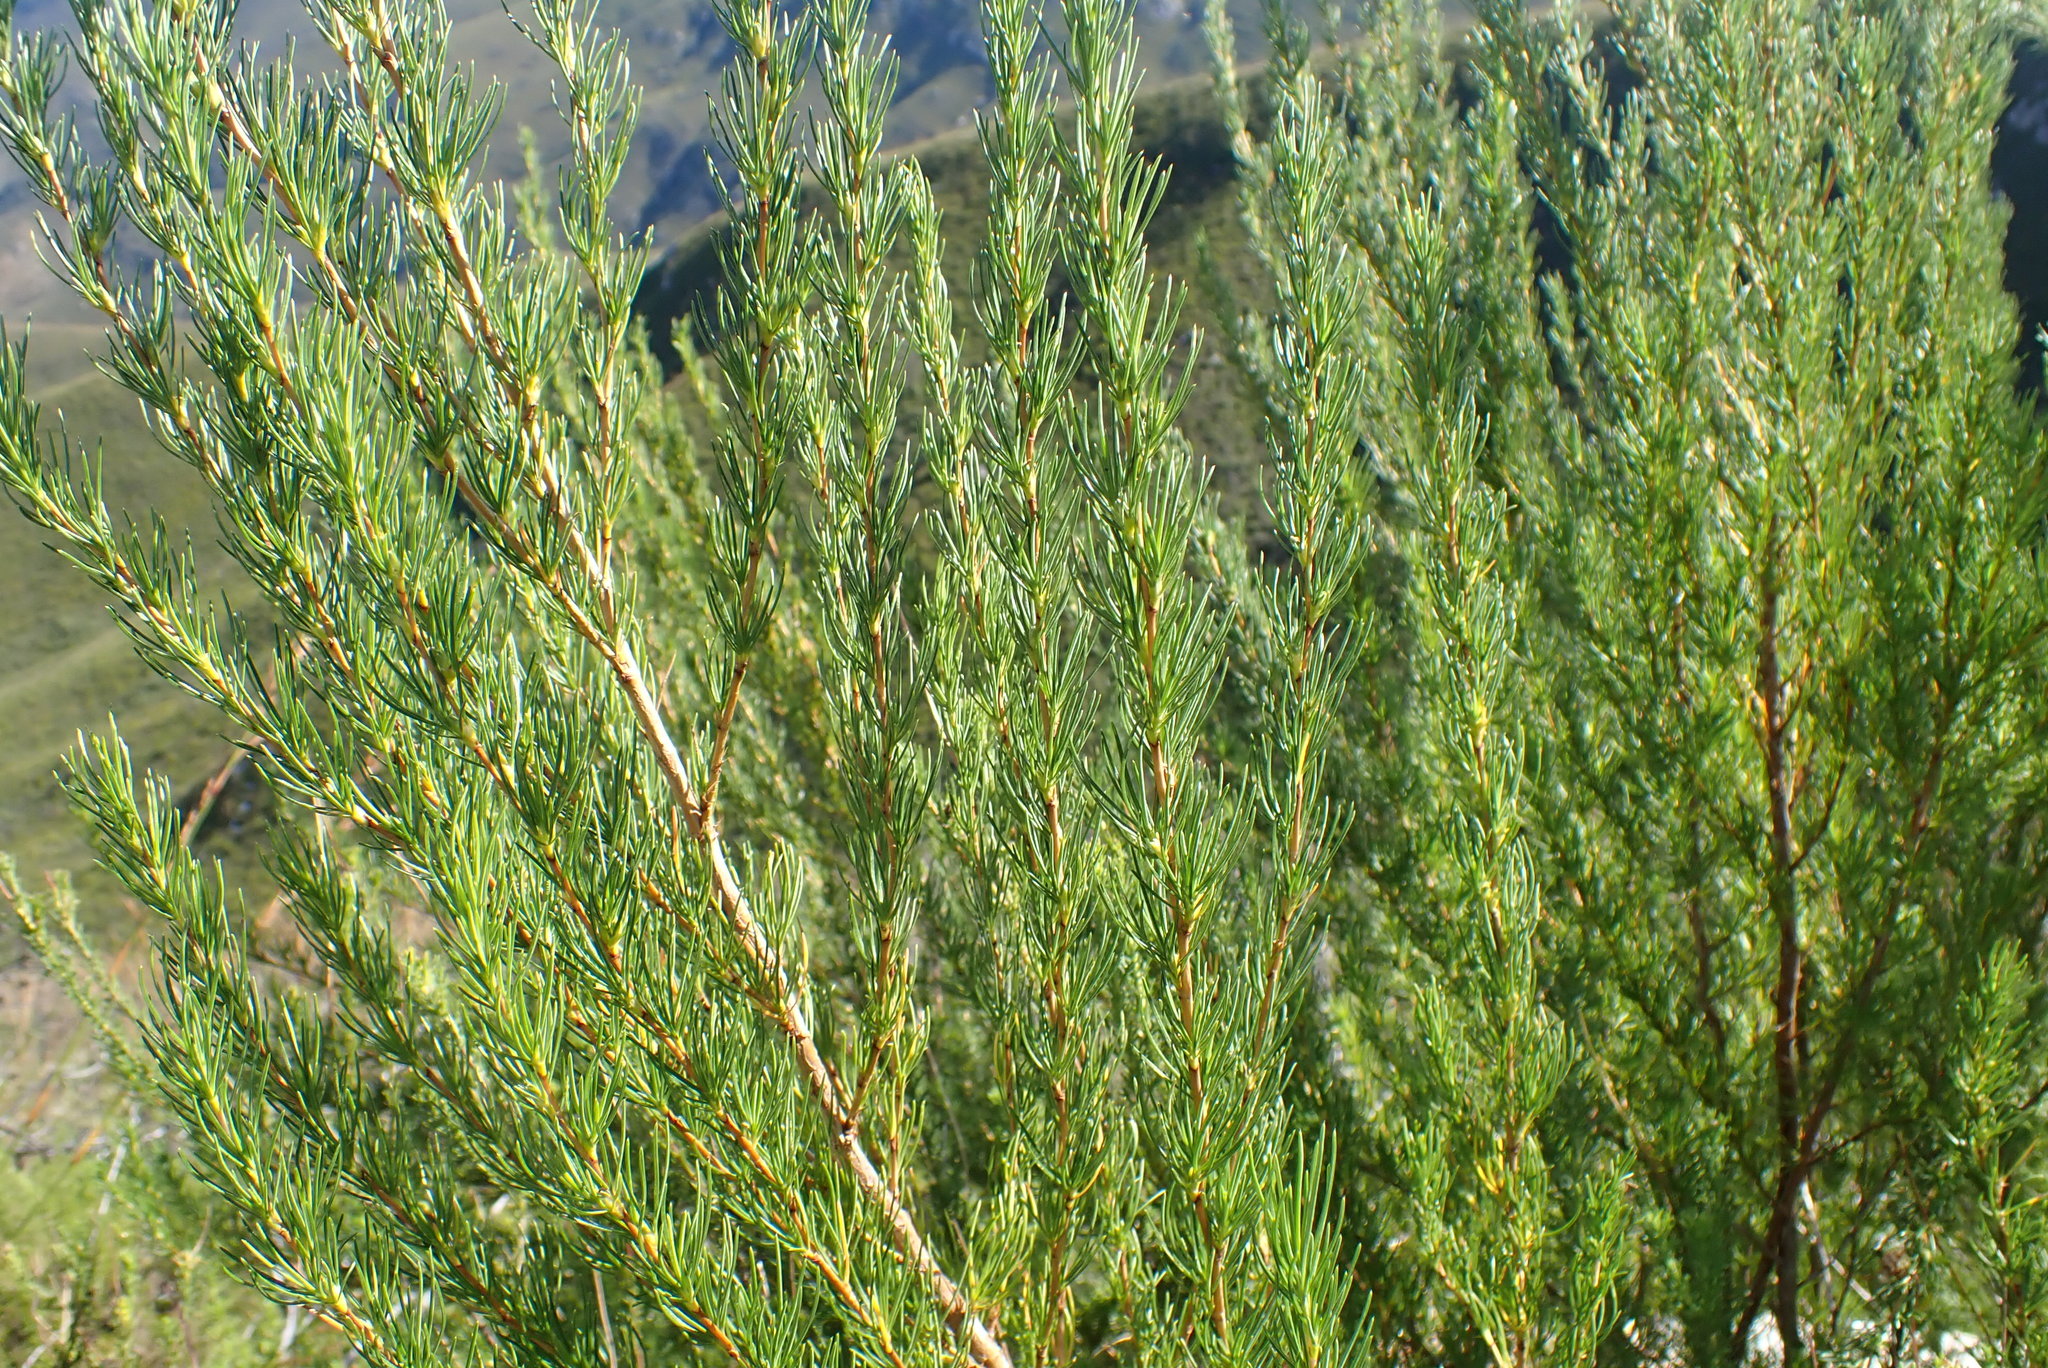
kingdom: Plantae
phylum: Tracheophyta
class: Magnoliopsida
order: Rosales
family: Rosaceae
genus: Cliffortia
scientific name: Cliffortia burchellii
